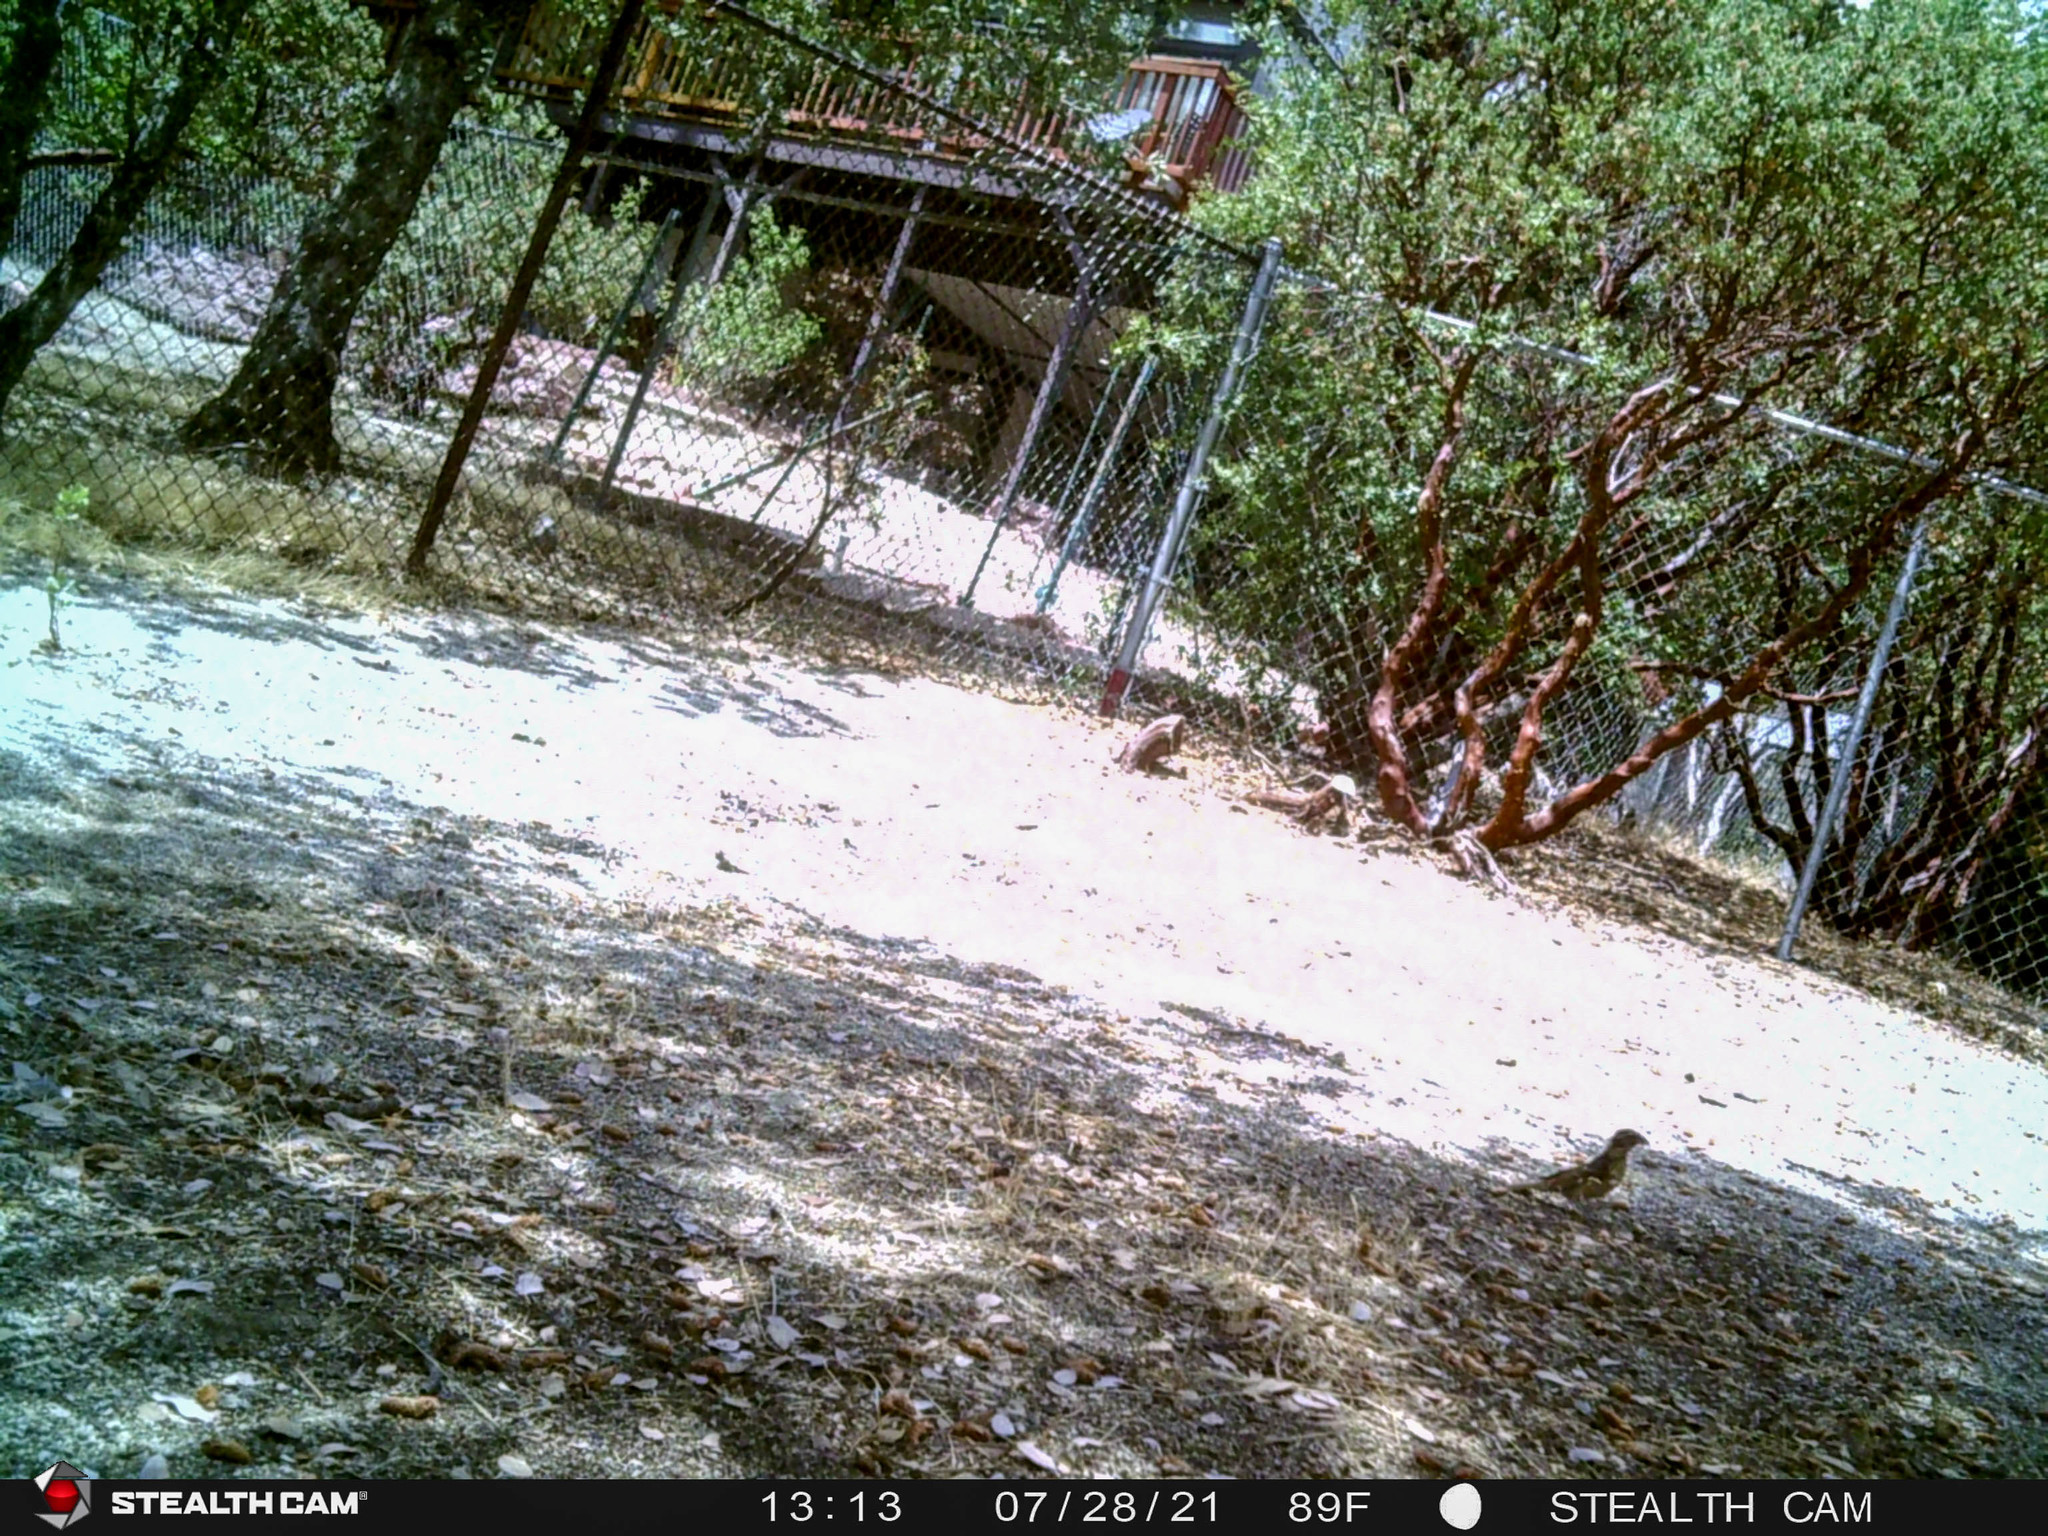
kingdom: Animalia
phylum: Chordata
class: Aves
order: Passeriformes
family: Cardinalidae
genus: Pheucticus
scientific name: Pheucticus melanocephalus
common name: Black-headed grosbeak
